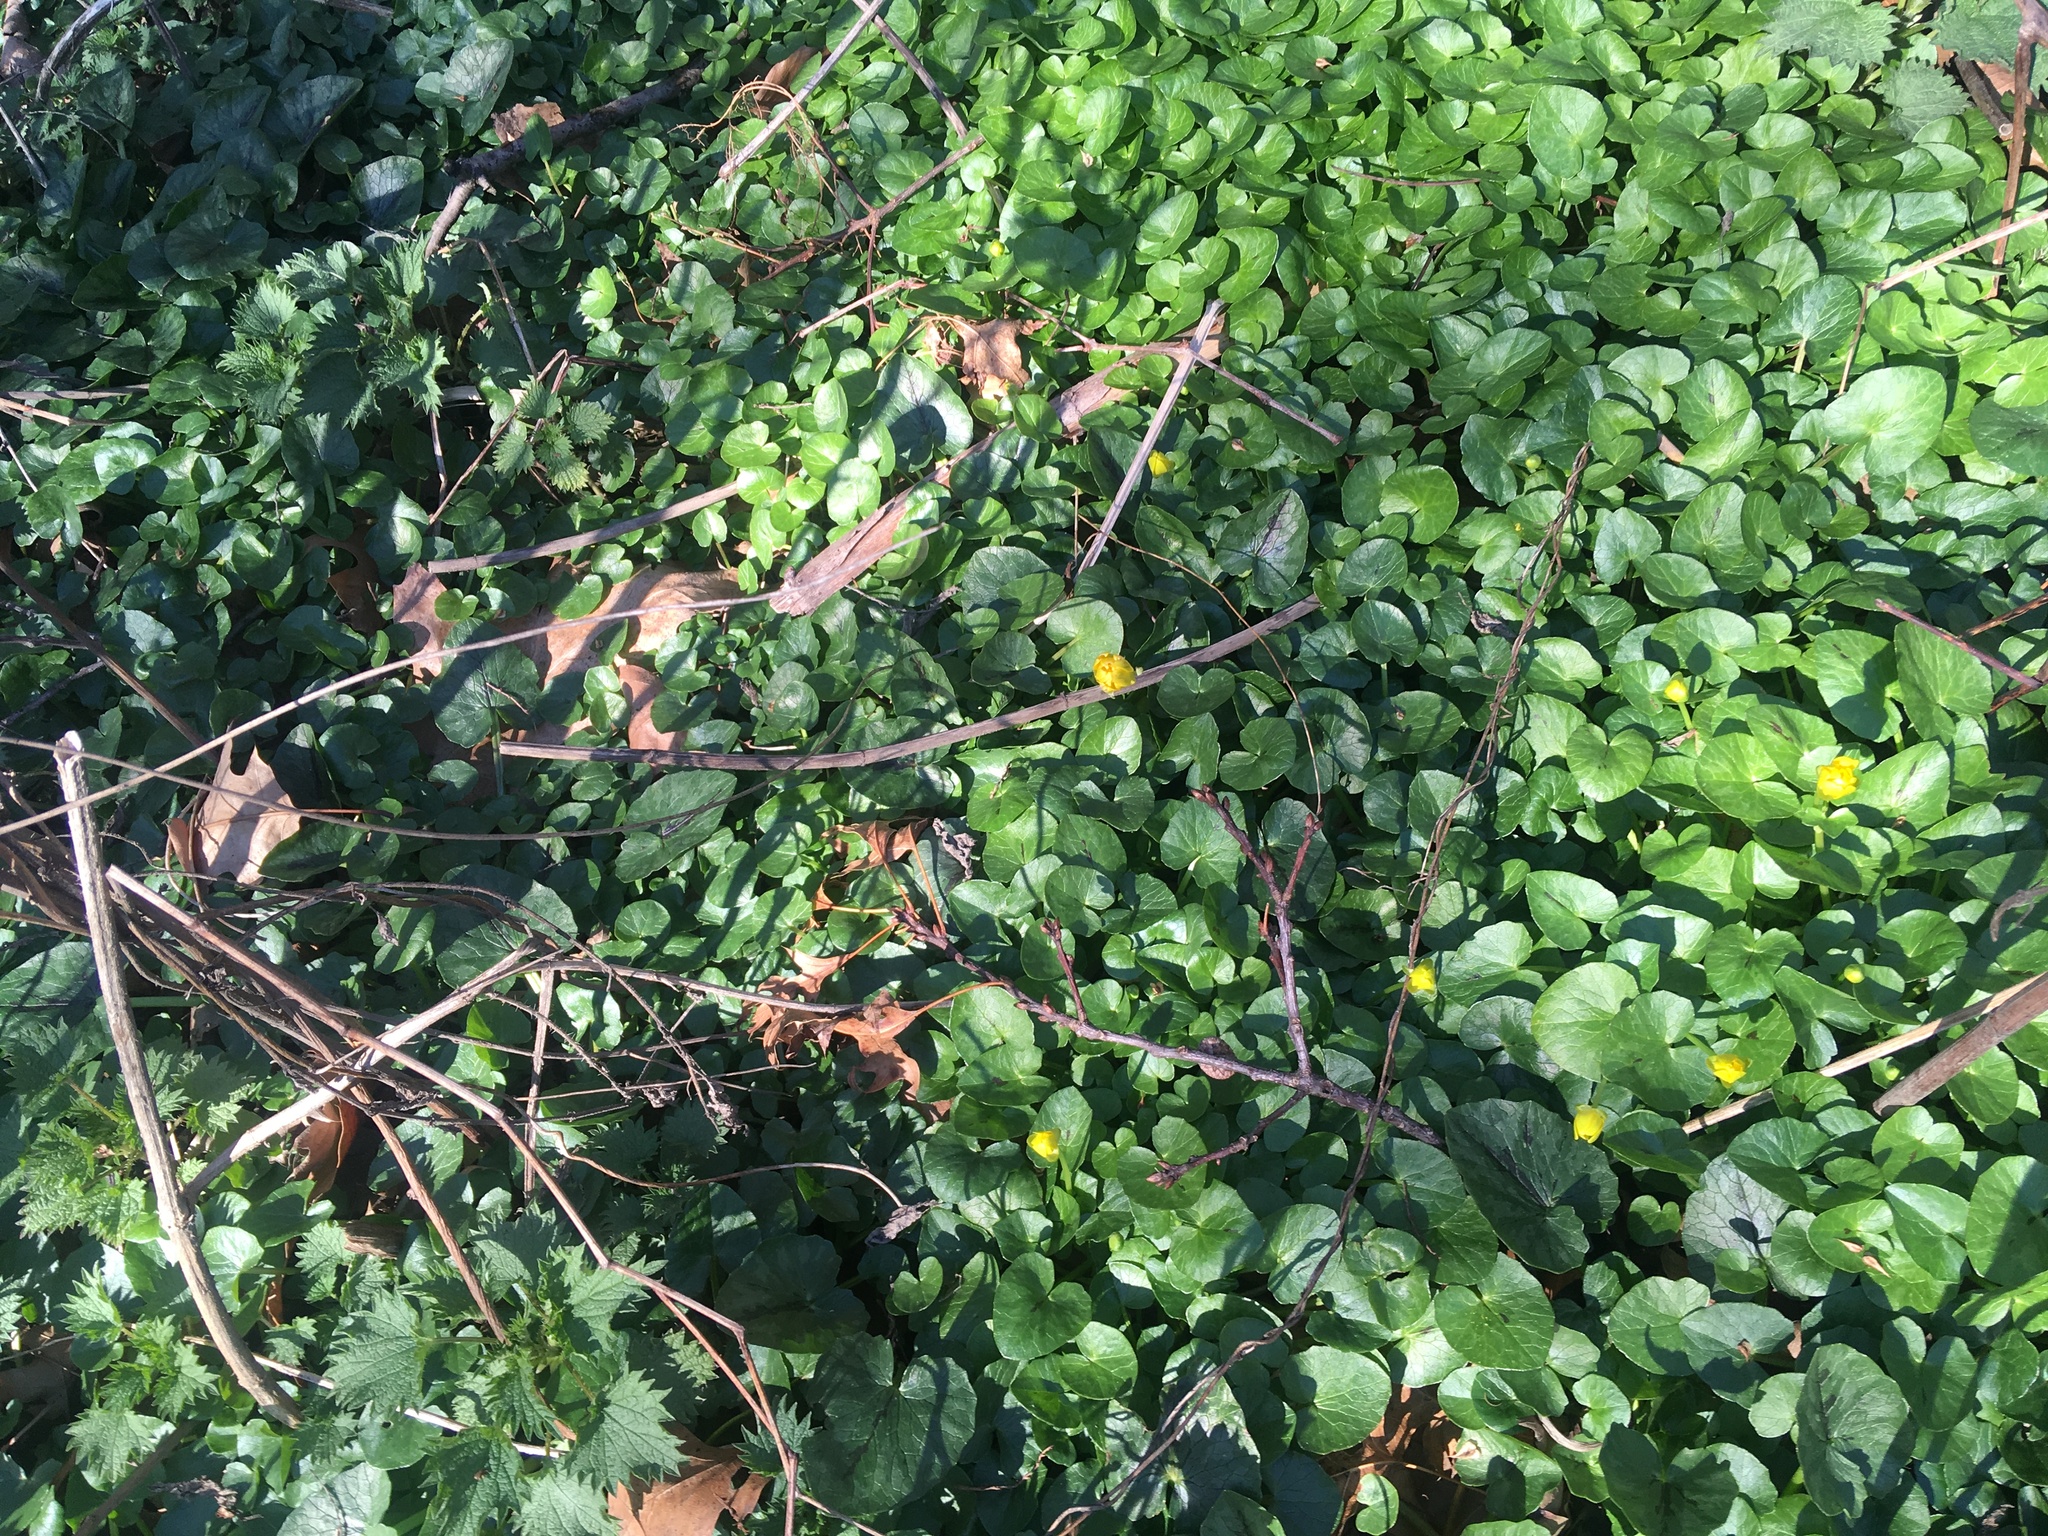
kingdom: Plantae
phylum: Tracheophyta
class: Magnoliopsida
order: Ranunculales
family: Ranunculaceae
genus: Ficaria
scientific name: Ficaria verna
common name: Lesser celandine
